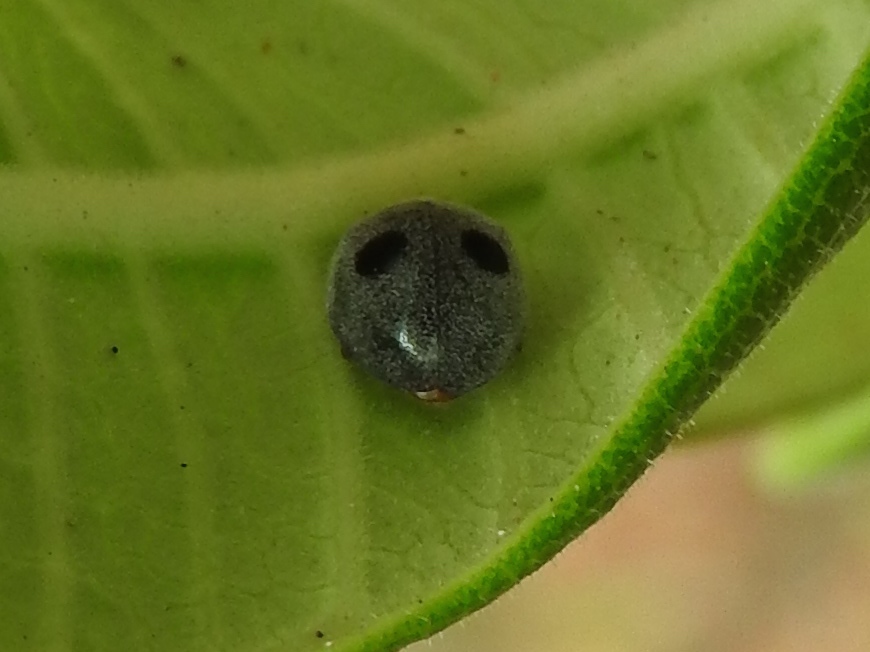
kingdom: Animalia
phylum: Arthropoda
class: Insecta
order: Coleoptera
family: Coccinellidae
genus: Azya
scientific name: Azya orbigera
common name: Ladybird beetle
